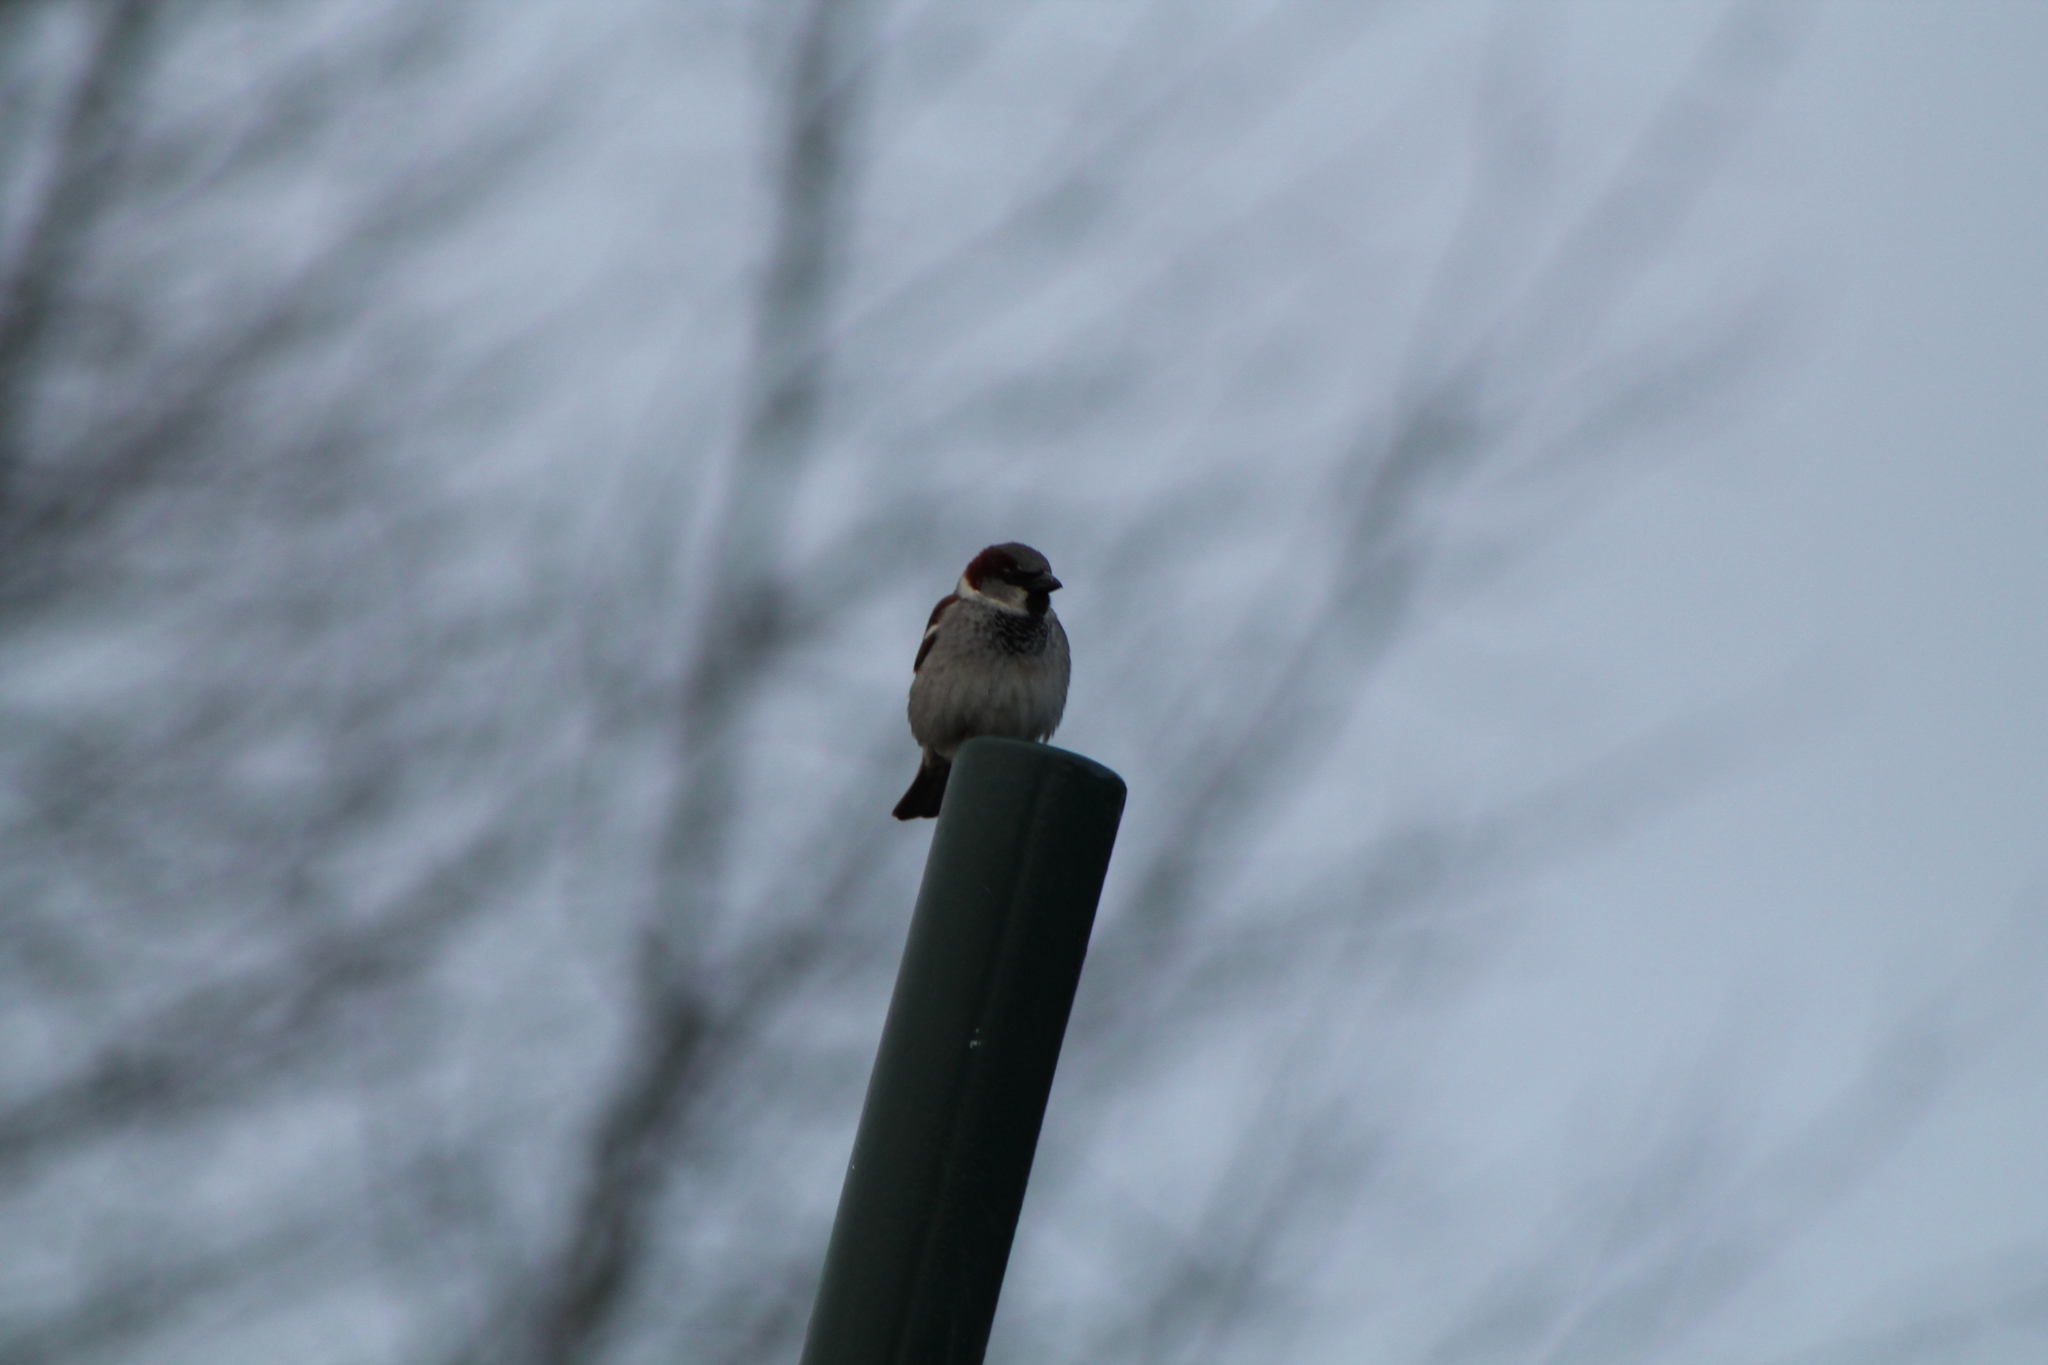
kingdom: Animalia
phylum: Chordata
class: Aves
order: Passeriformes
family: Passeridae
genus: Passer
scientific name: Passer domesticus
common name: House sparrow
